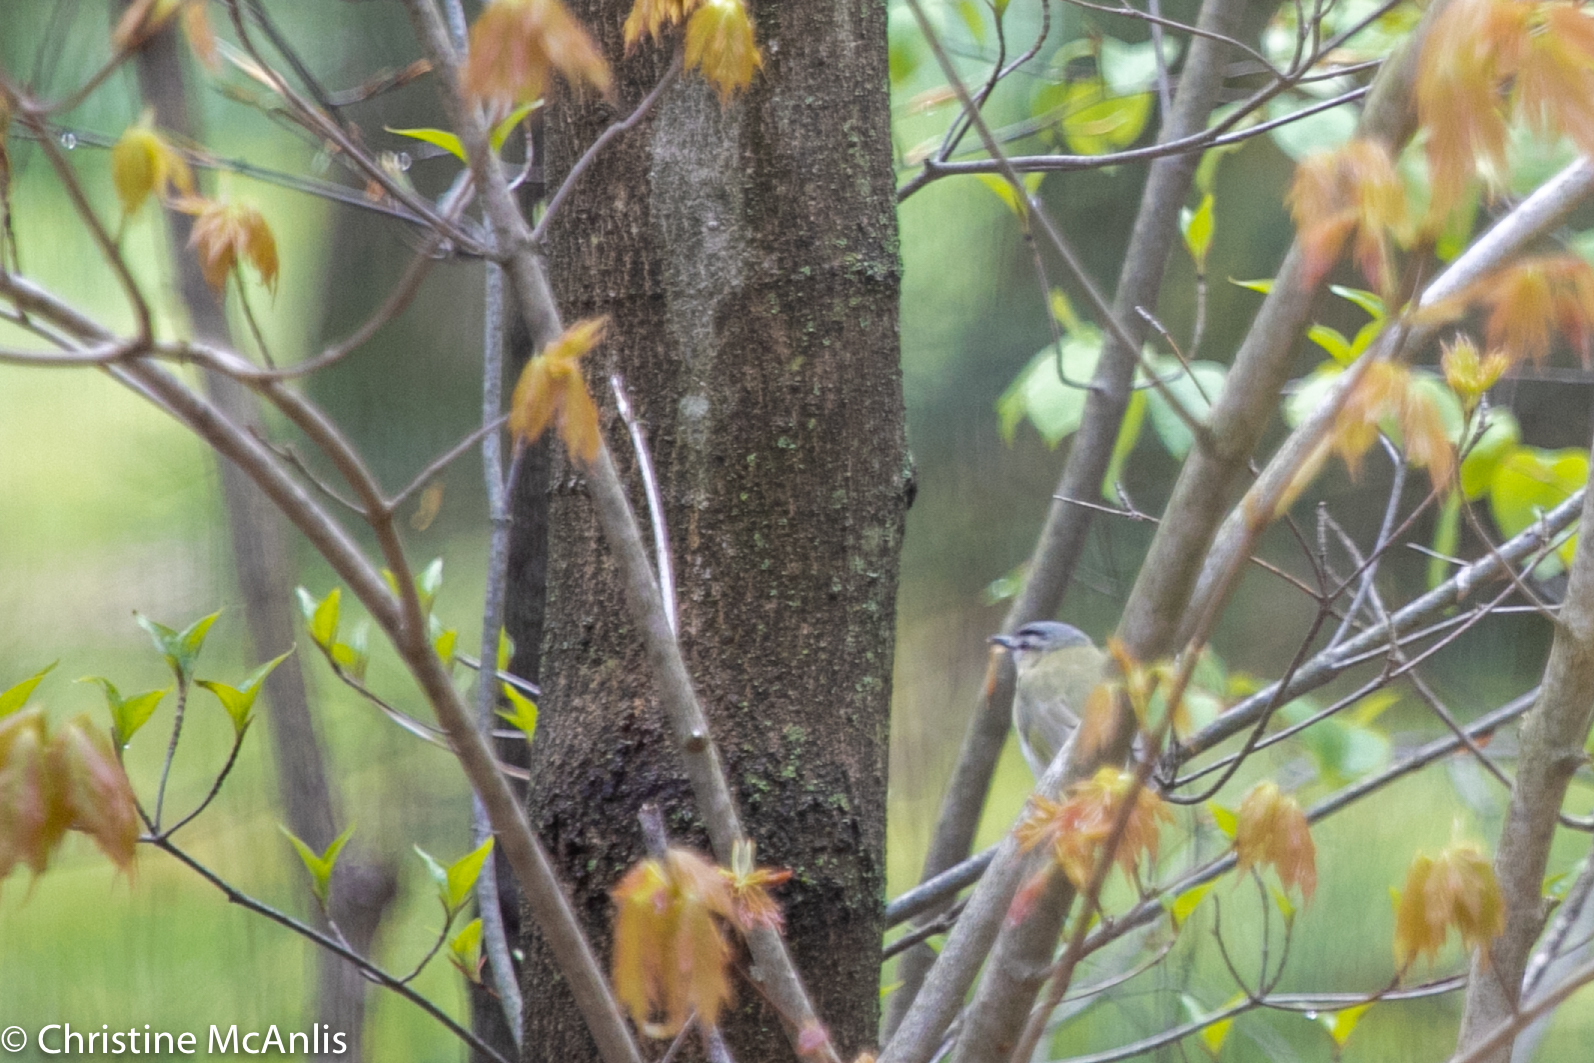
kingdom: Animalia
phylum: Chordata
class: Aves
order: Passeriformes
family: Vireonidae
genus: Vireo
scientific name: Vireo olivaceus
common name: Red-eyed vireo
